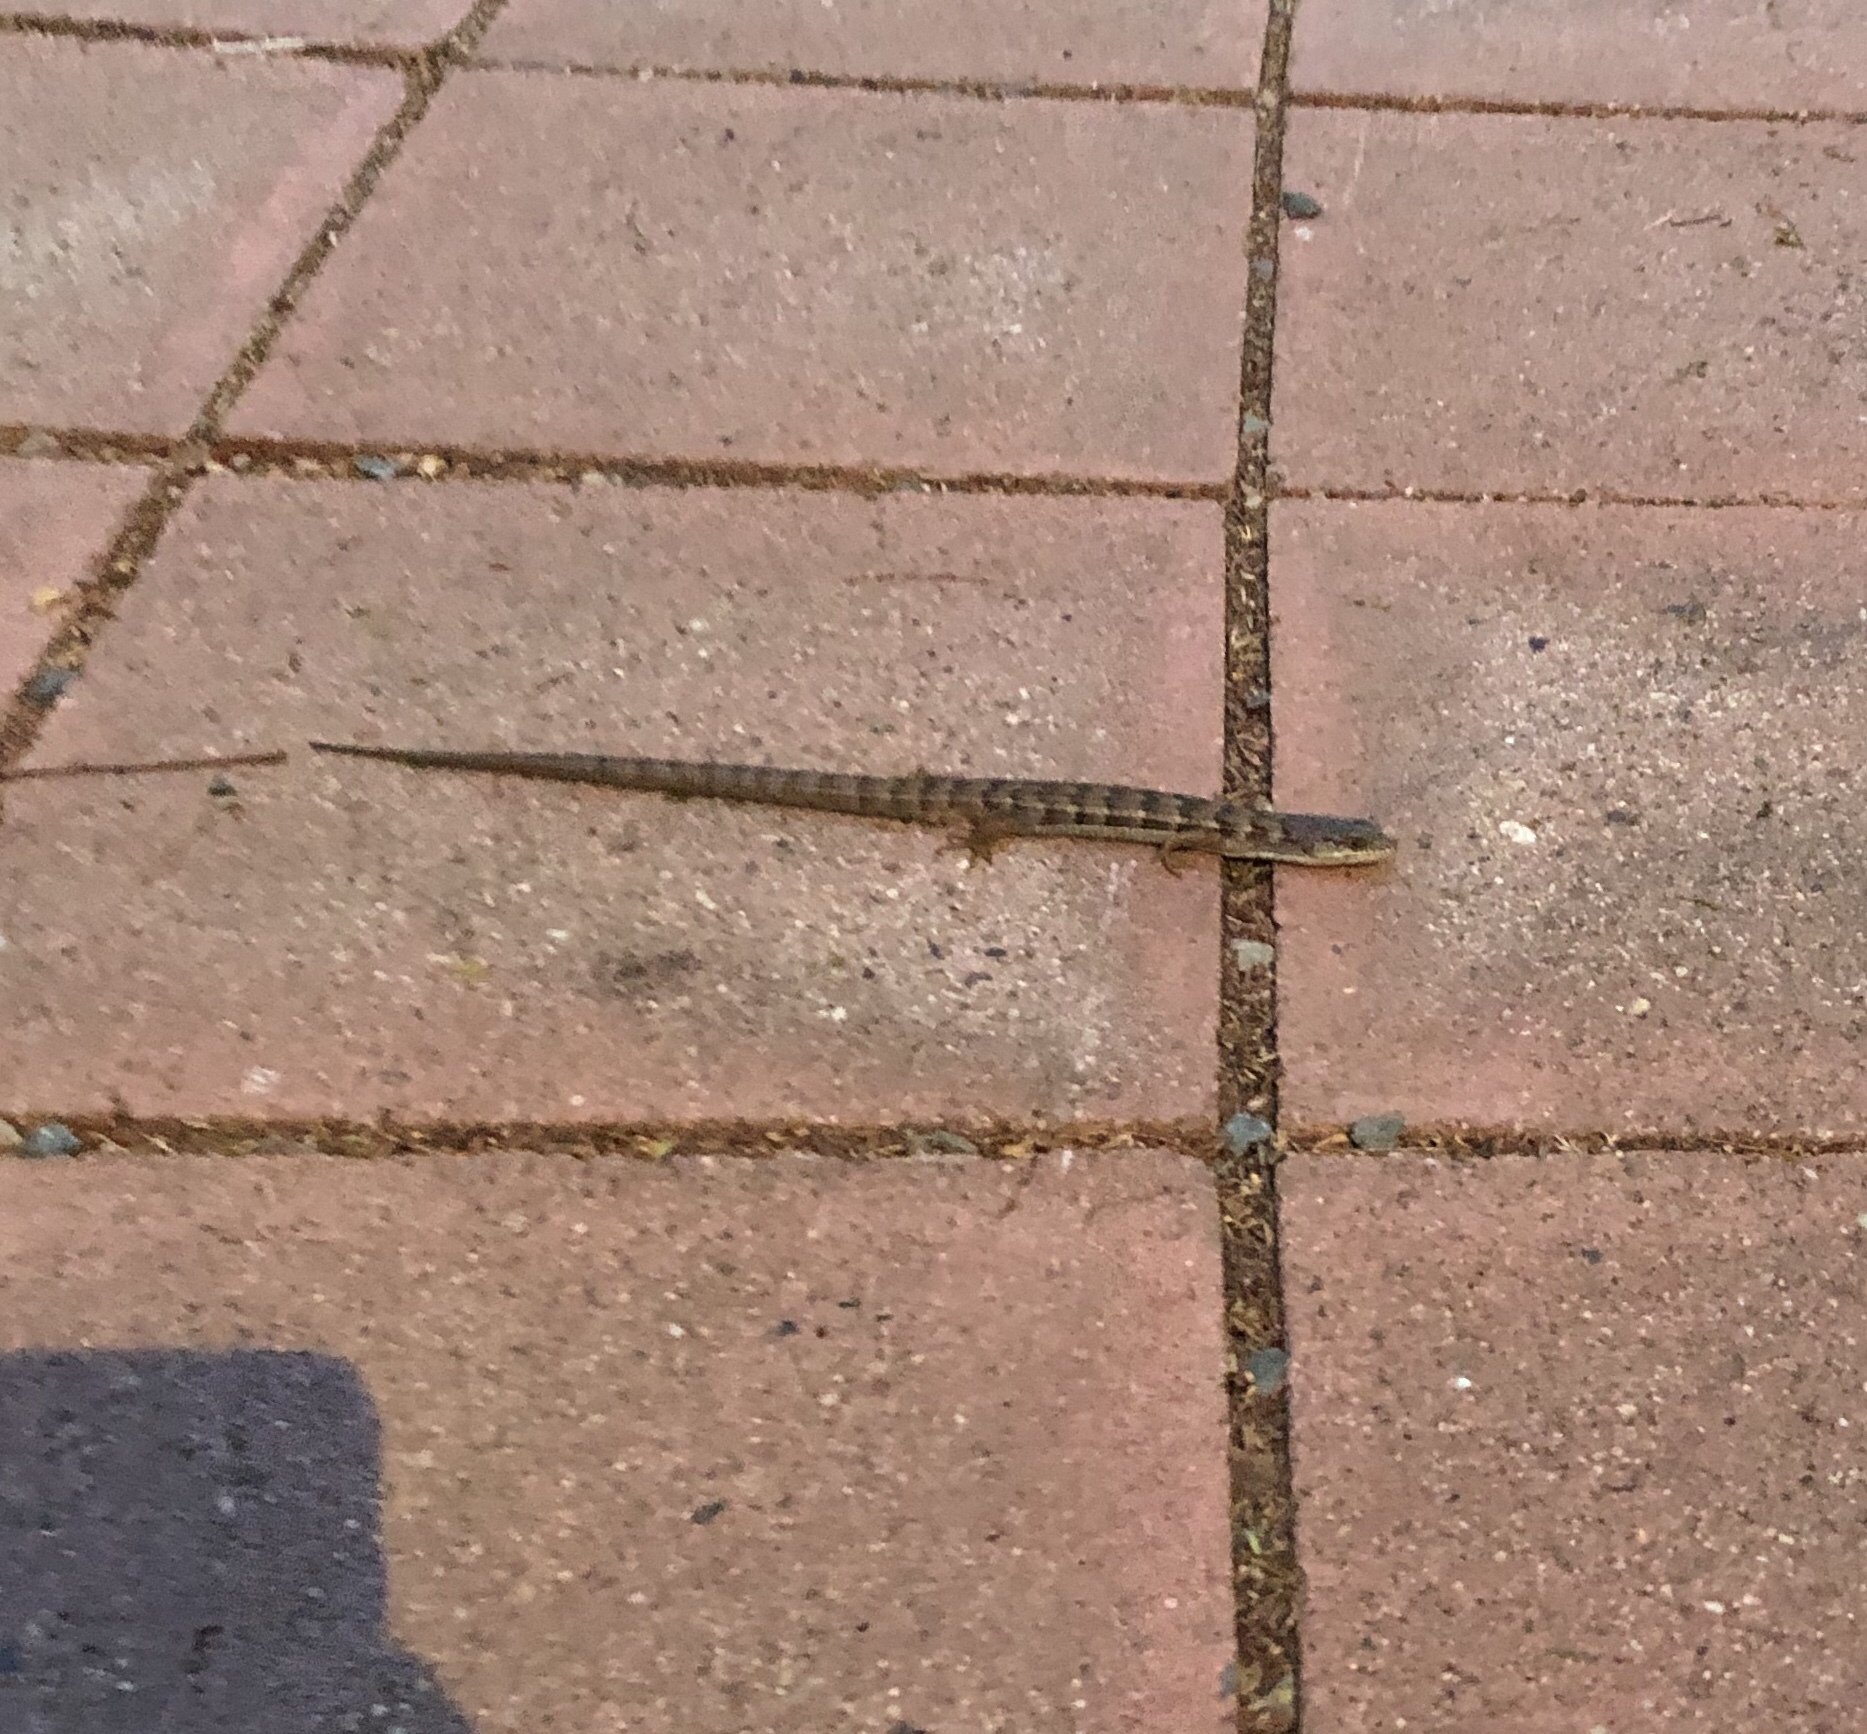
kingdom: Animalia
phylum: Chordata
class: Squamata
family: Anguidae
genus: Elgaria
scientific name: Elgaria multicarinata
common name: Southern alligator lizard
